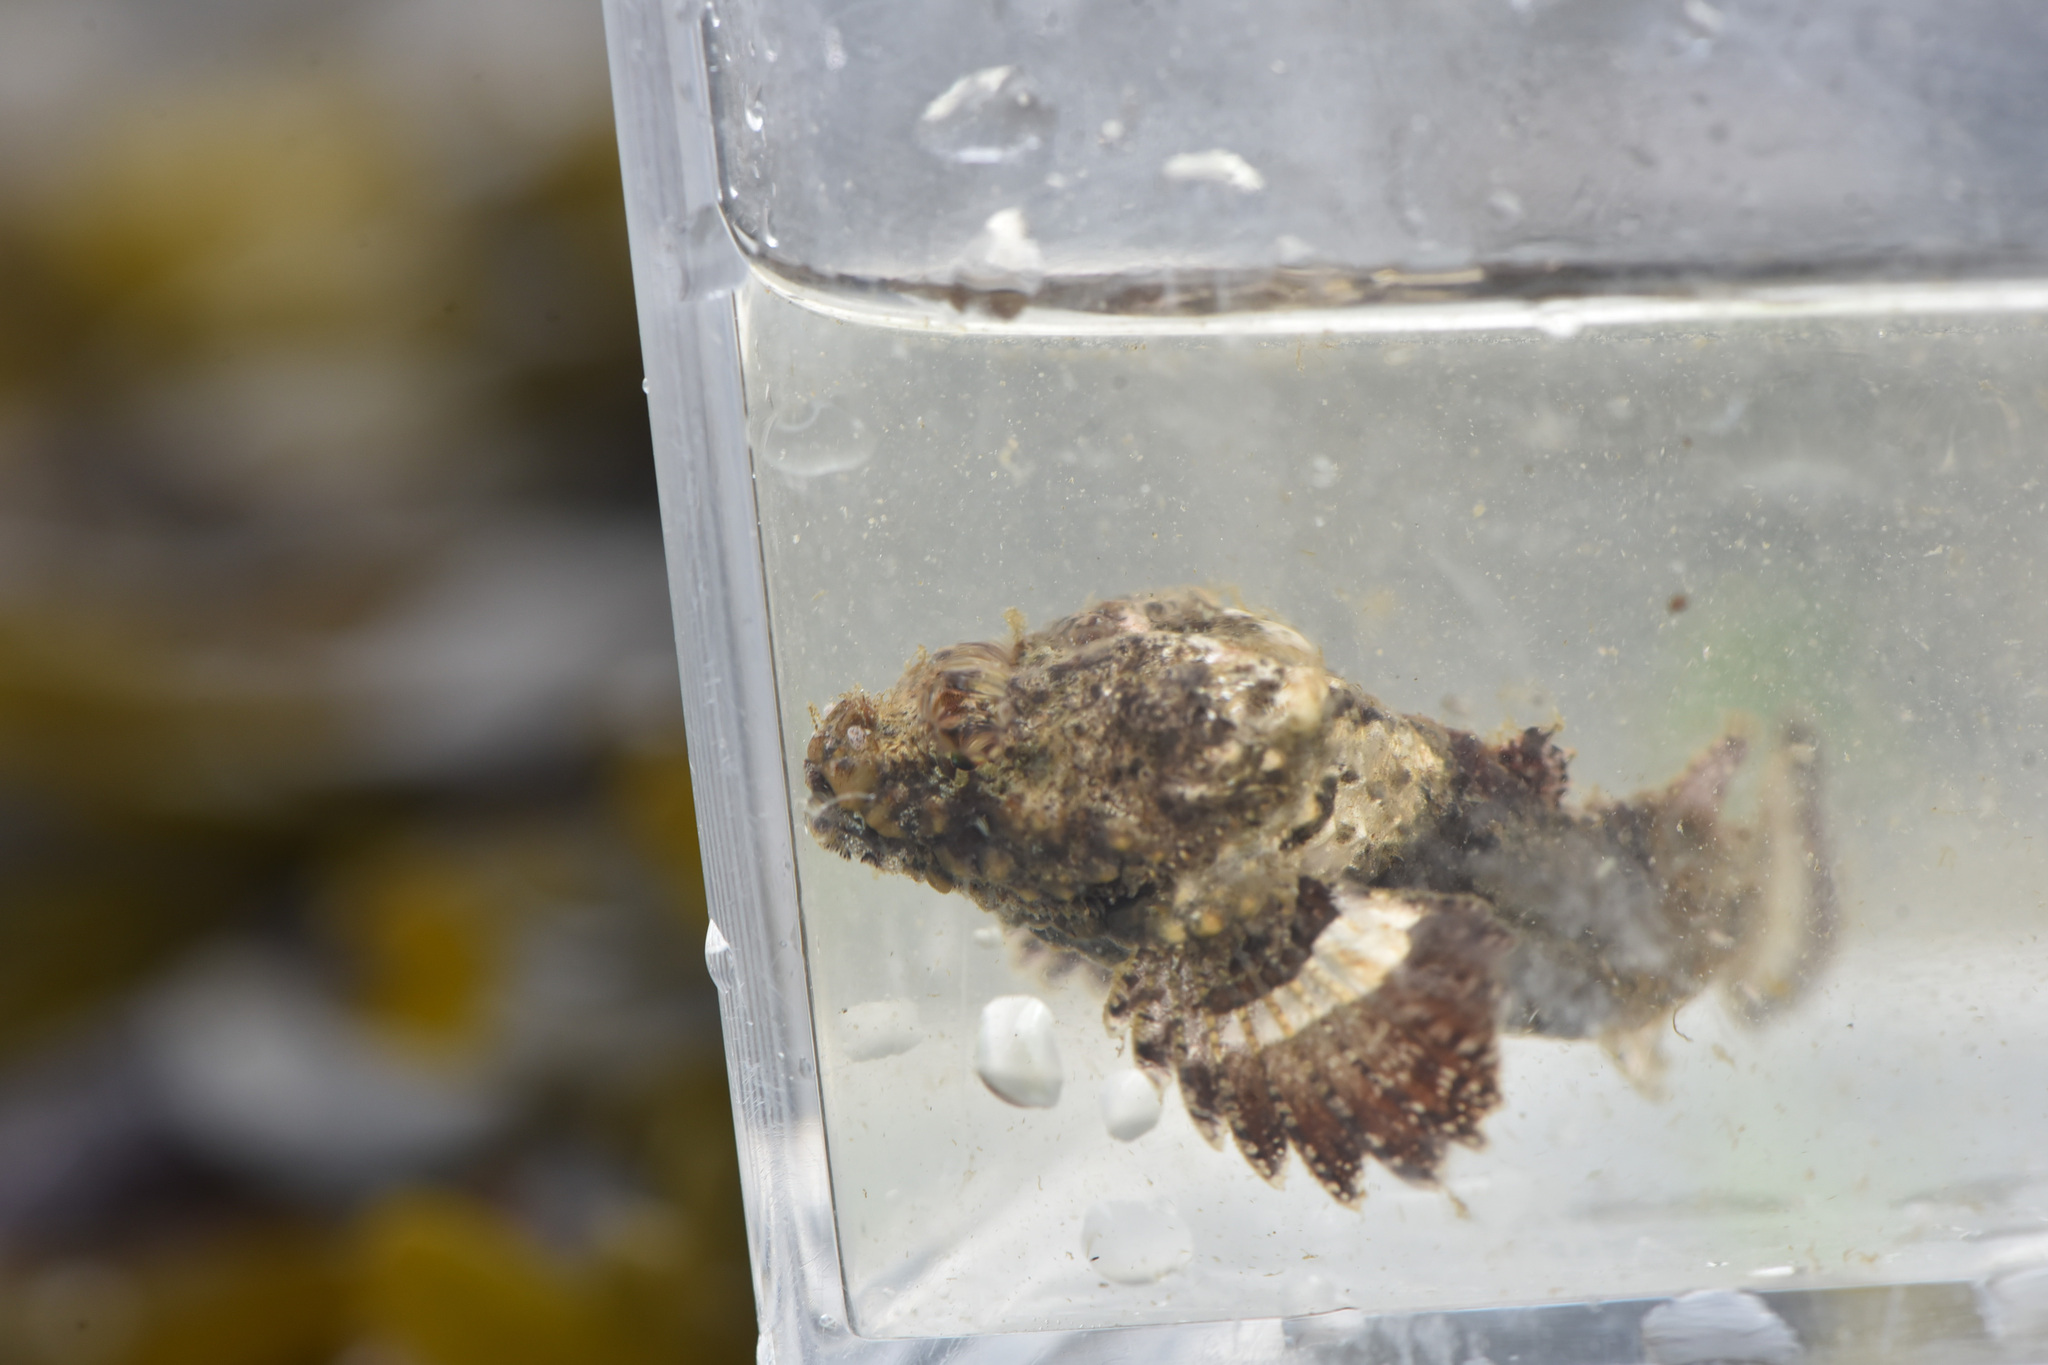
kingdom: Animalia
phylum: Chordata
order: Scorpaeniformes
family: Agonidae
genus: Bothragonus
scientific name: Bothragonus swanii
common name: Rockhead
